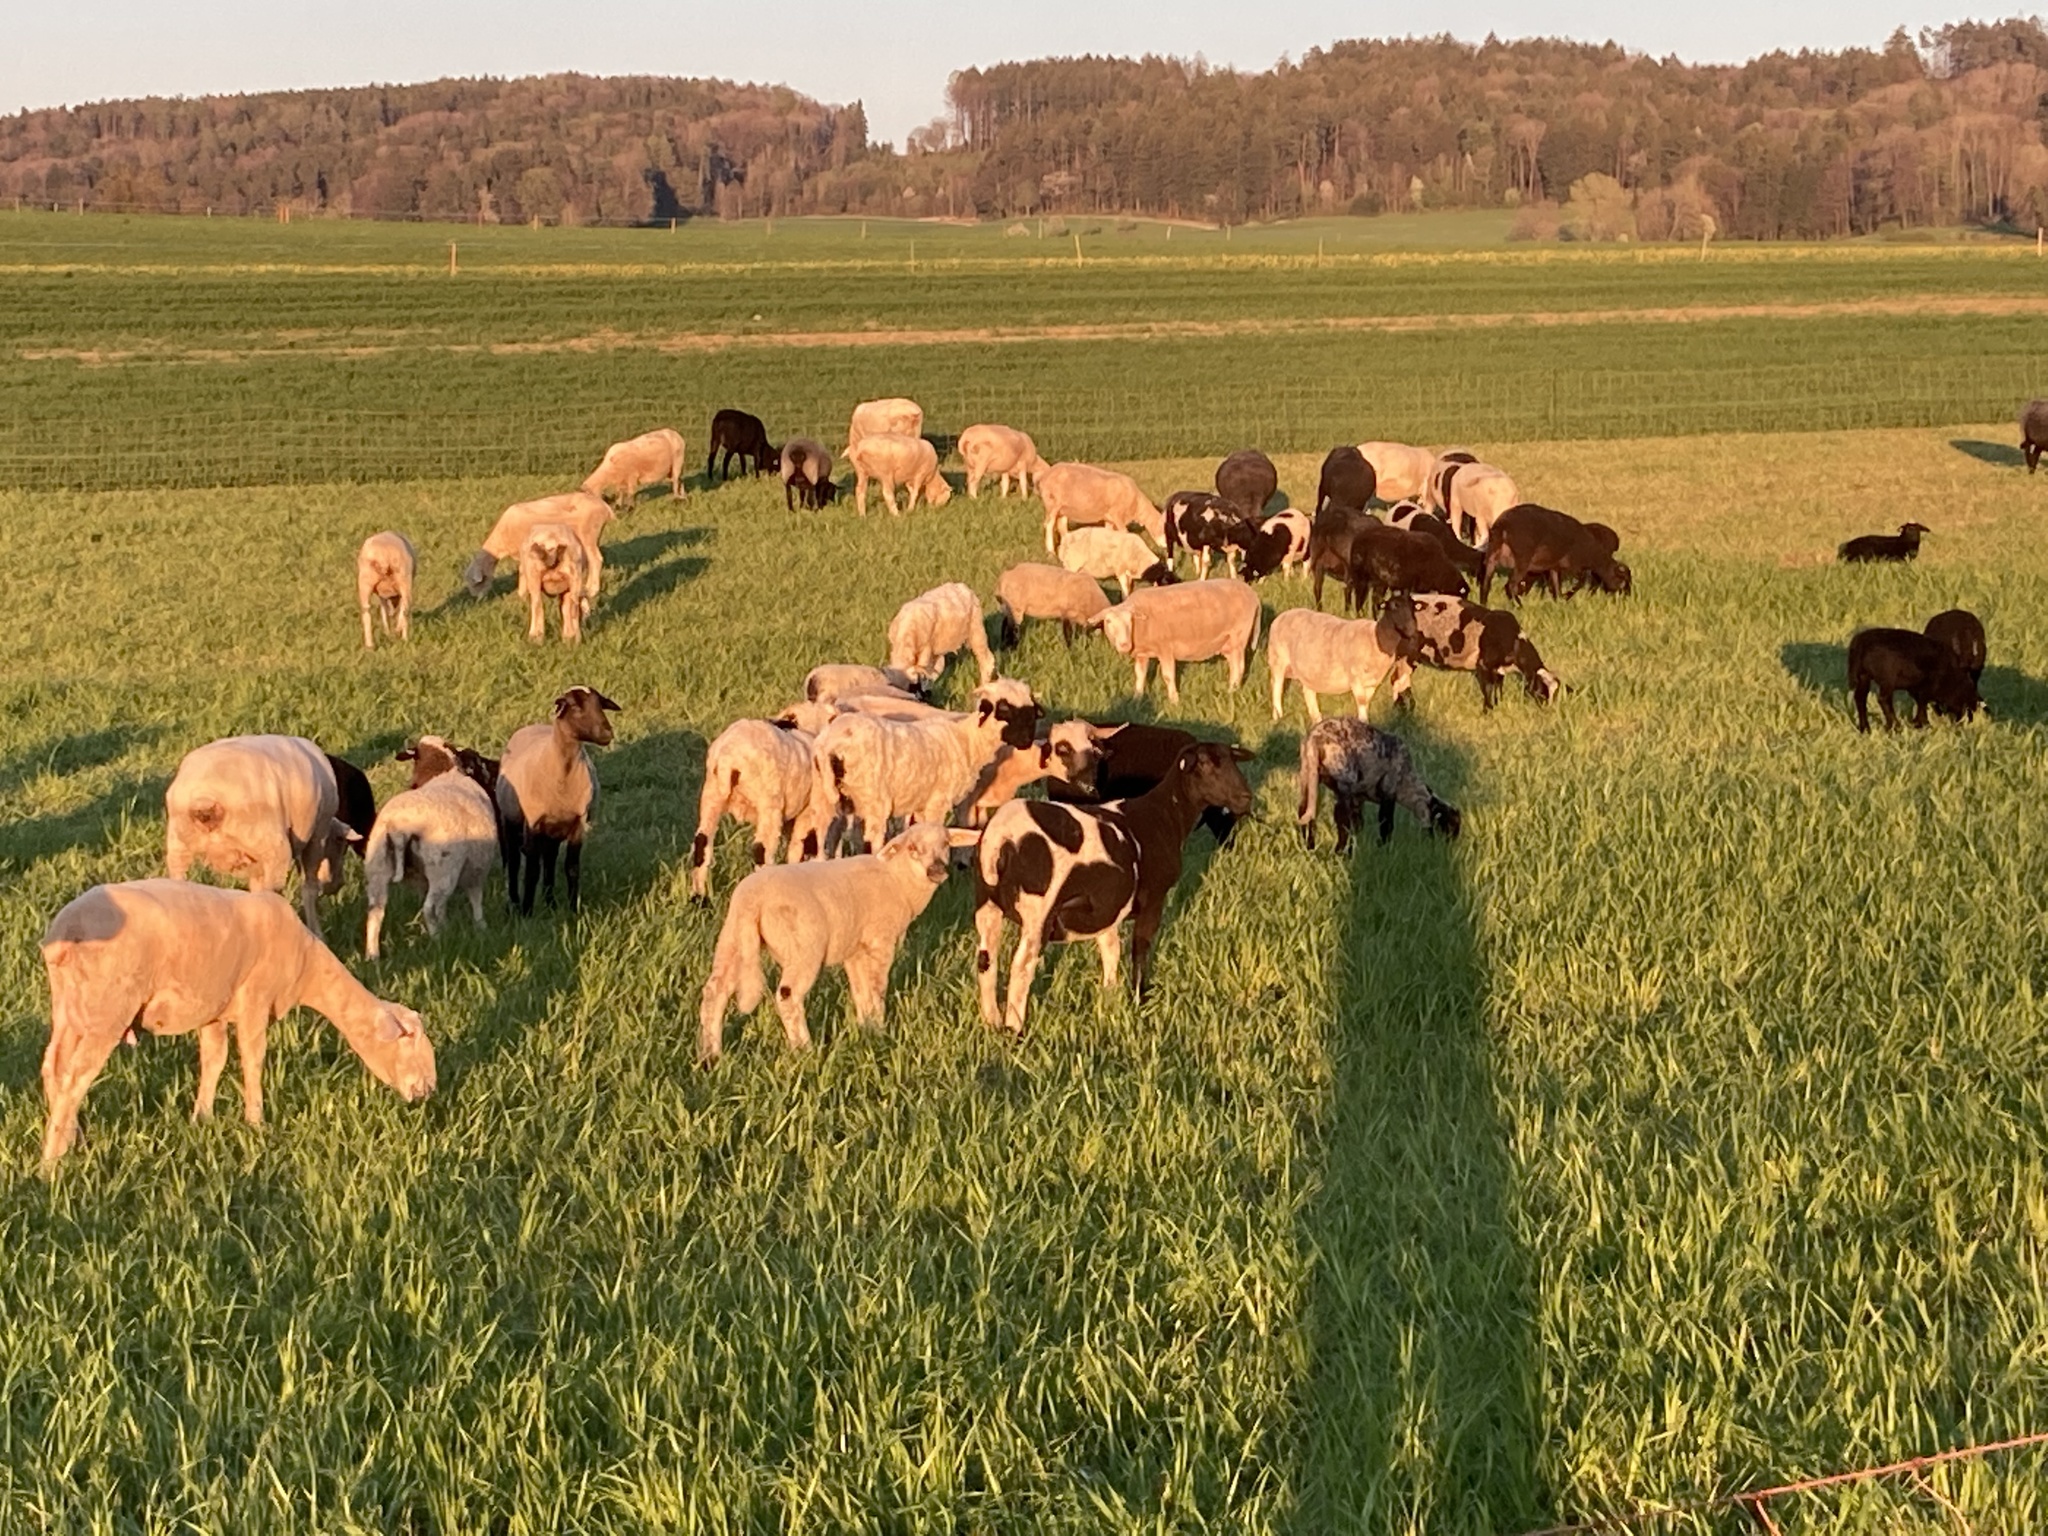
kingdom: Animalia
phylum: Chordata
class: Mammalia
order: Artiodactyla
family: Bovidae
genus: Ovis
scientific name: Ovis aries
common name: Domestic sheep
